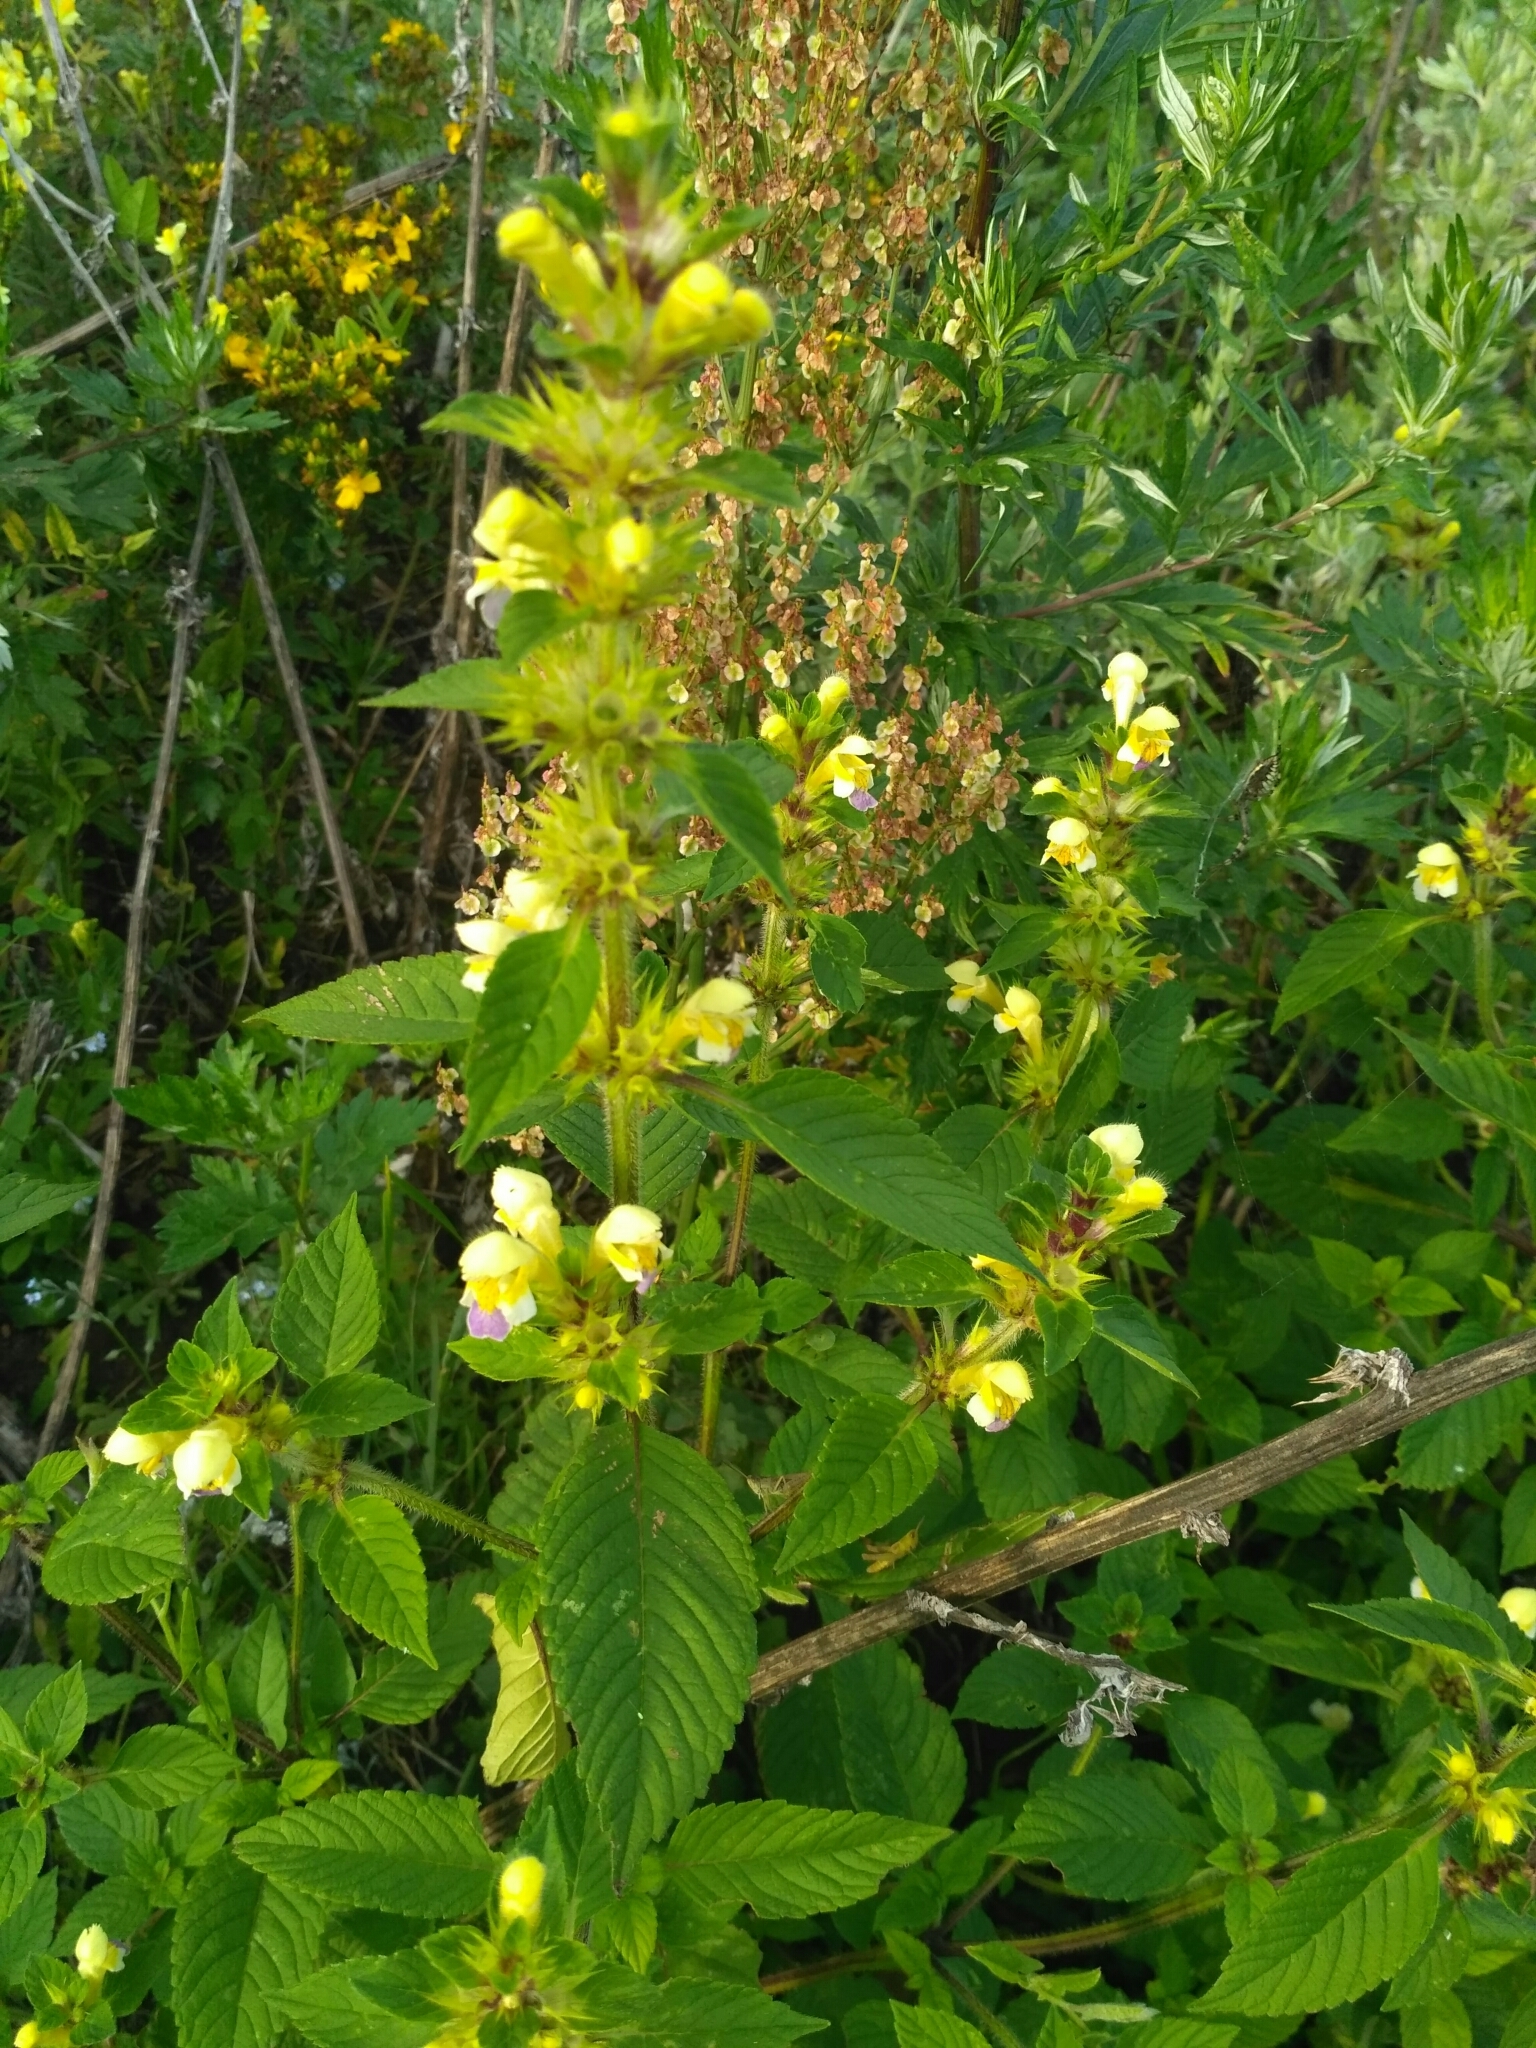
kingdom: Plantae
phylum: Tracheophyta
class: Magnoliopsida
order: Lamiales
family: Lamiaceae
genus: Galeopsis
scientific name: Galeopsis speciosa
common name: Large-flowered hemp-nettle
